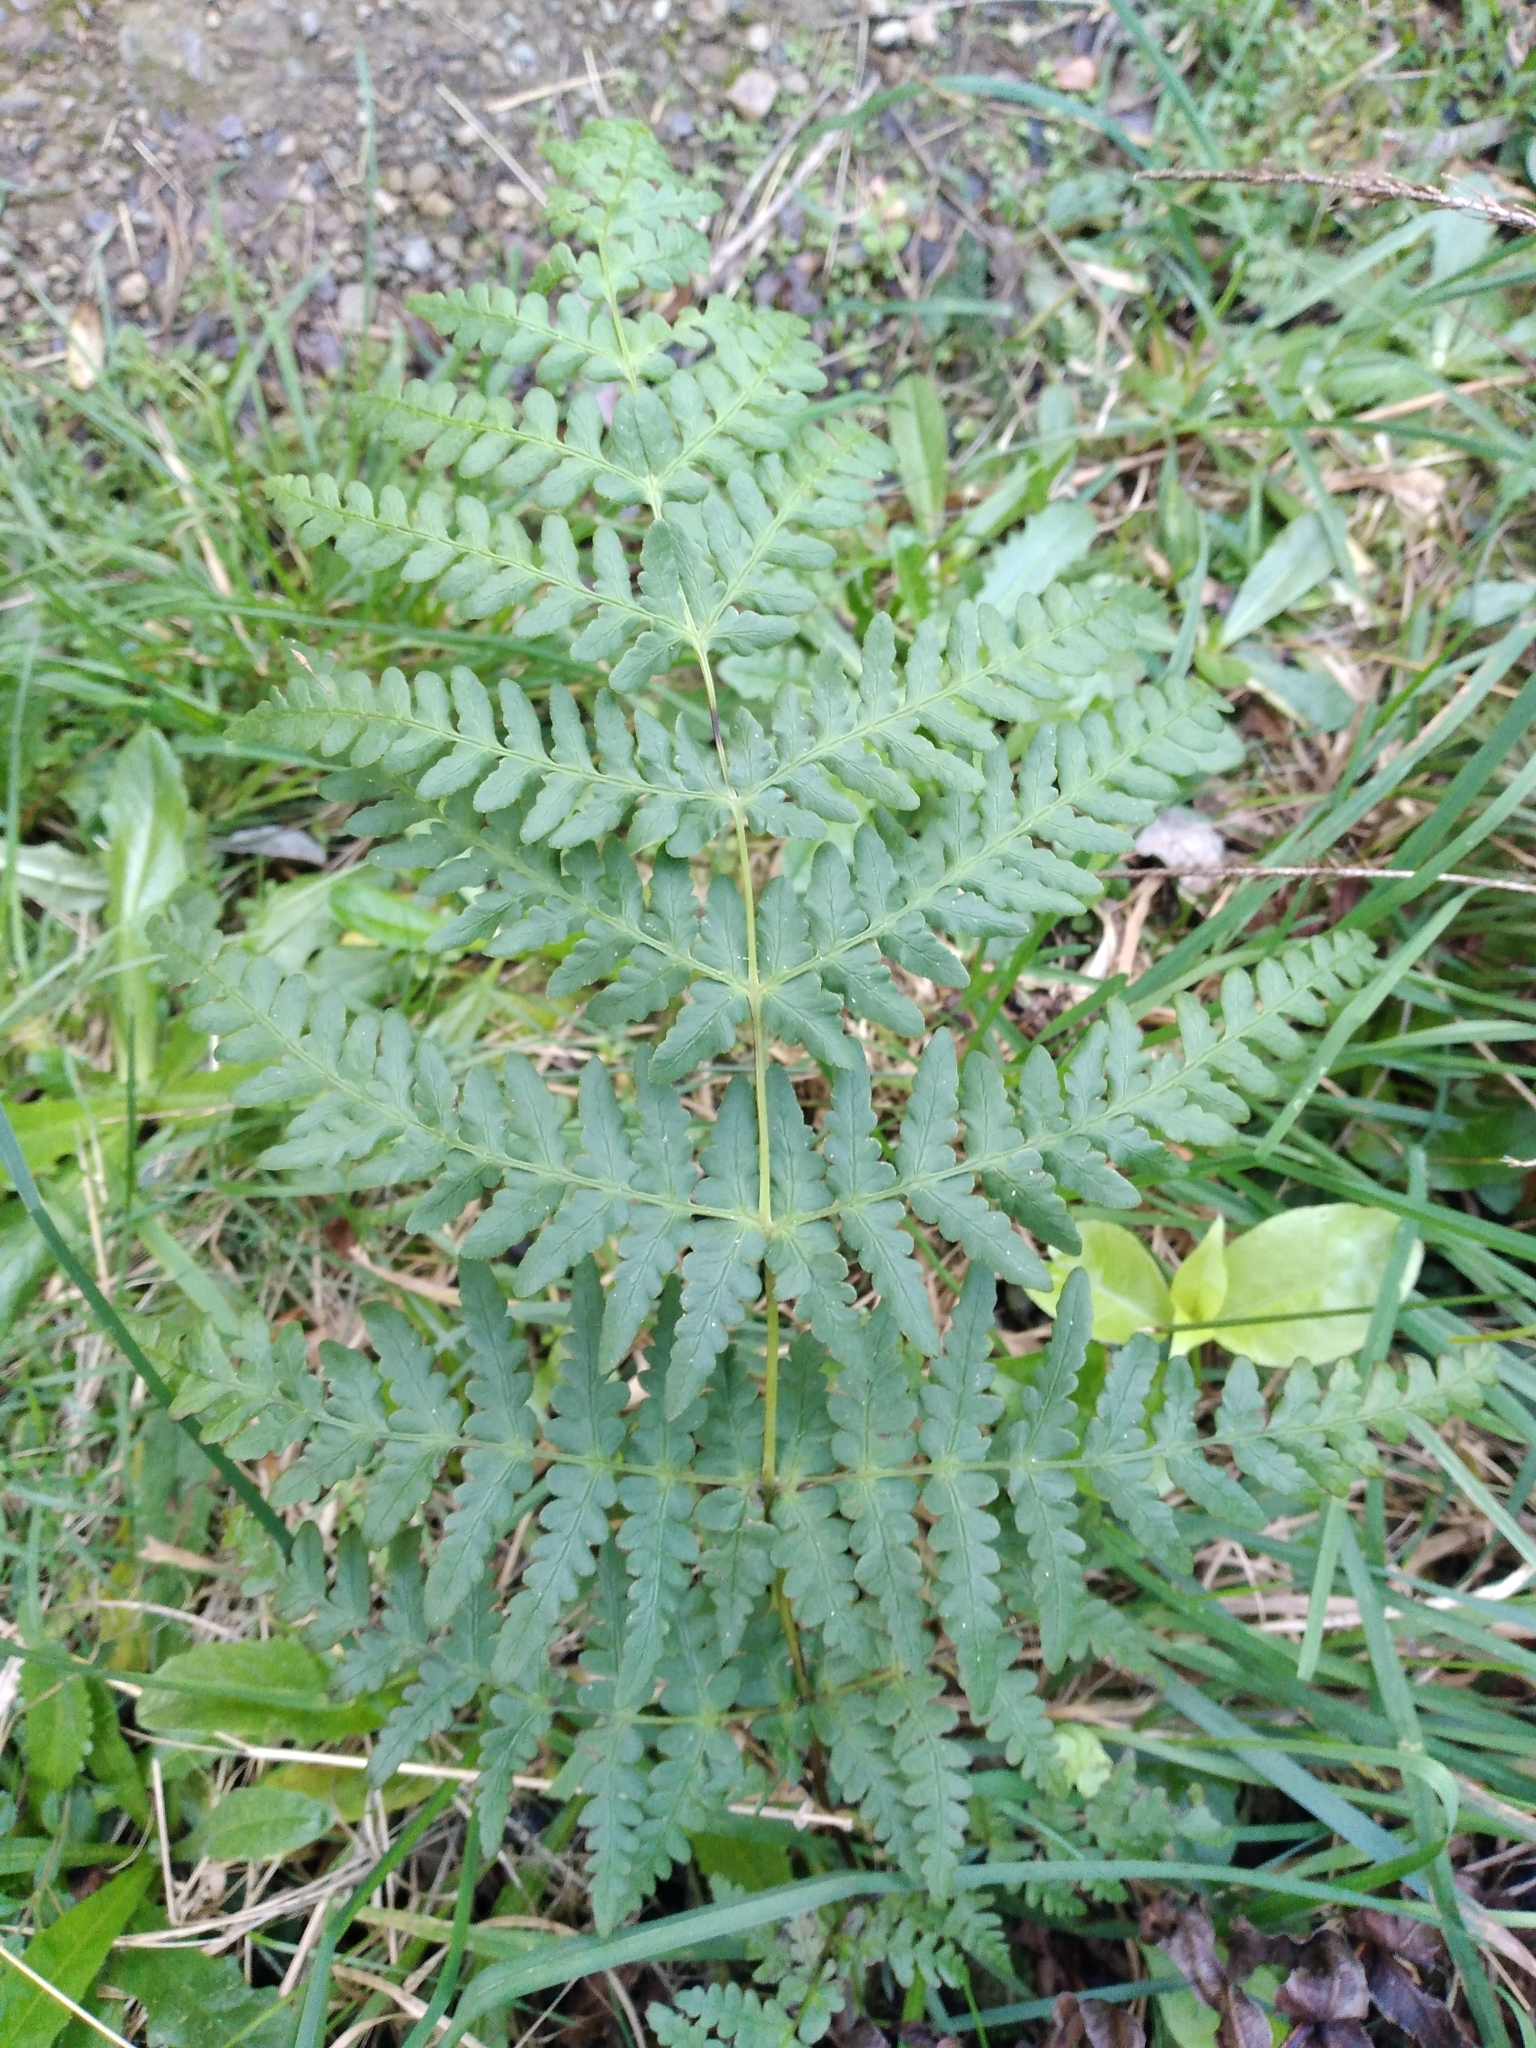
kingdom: Plantae
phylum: Tracheophyta
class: Polypodiopsida
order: Polypodiales
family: Dennstaedtiaceae
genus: Histiopteris
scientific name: Histiopteris incisa
